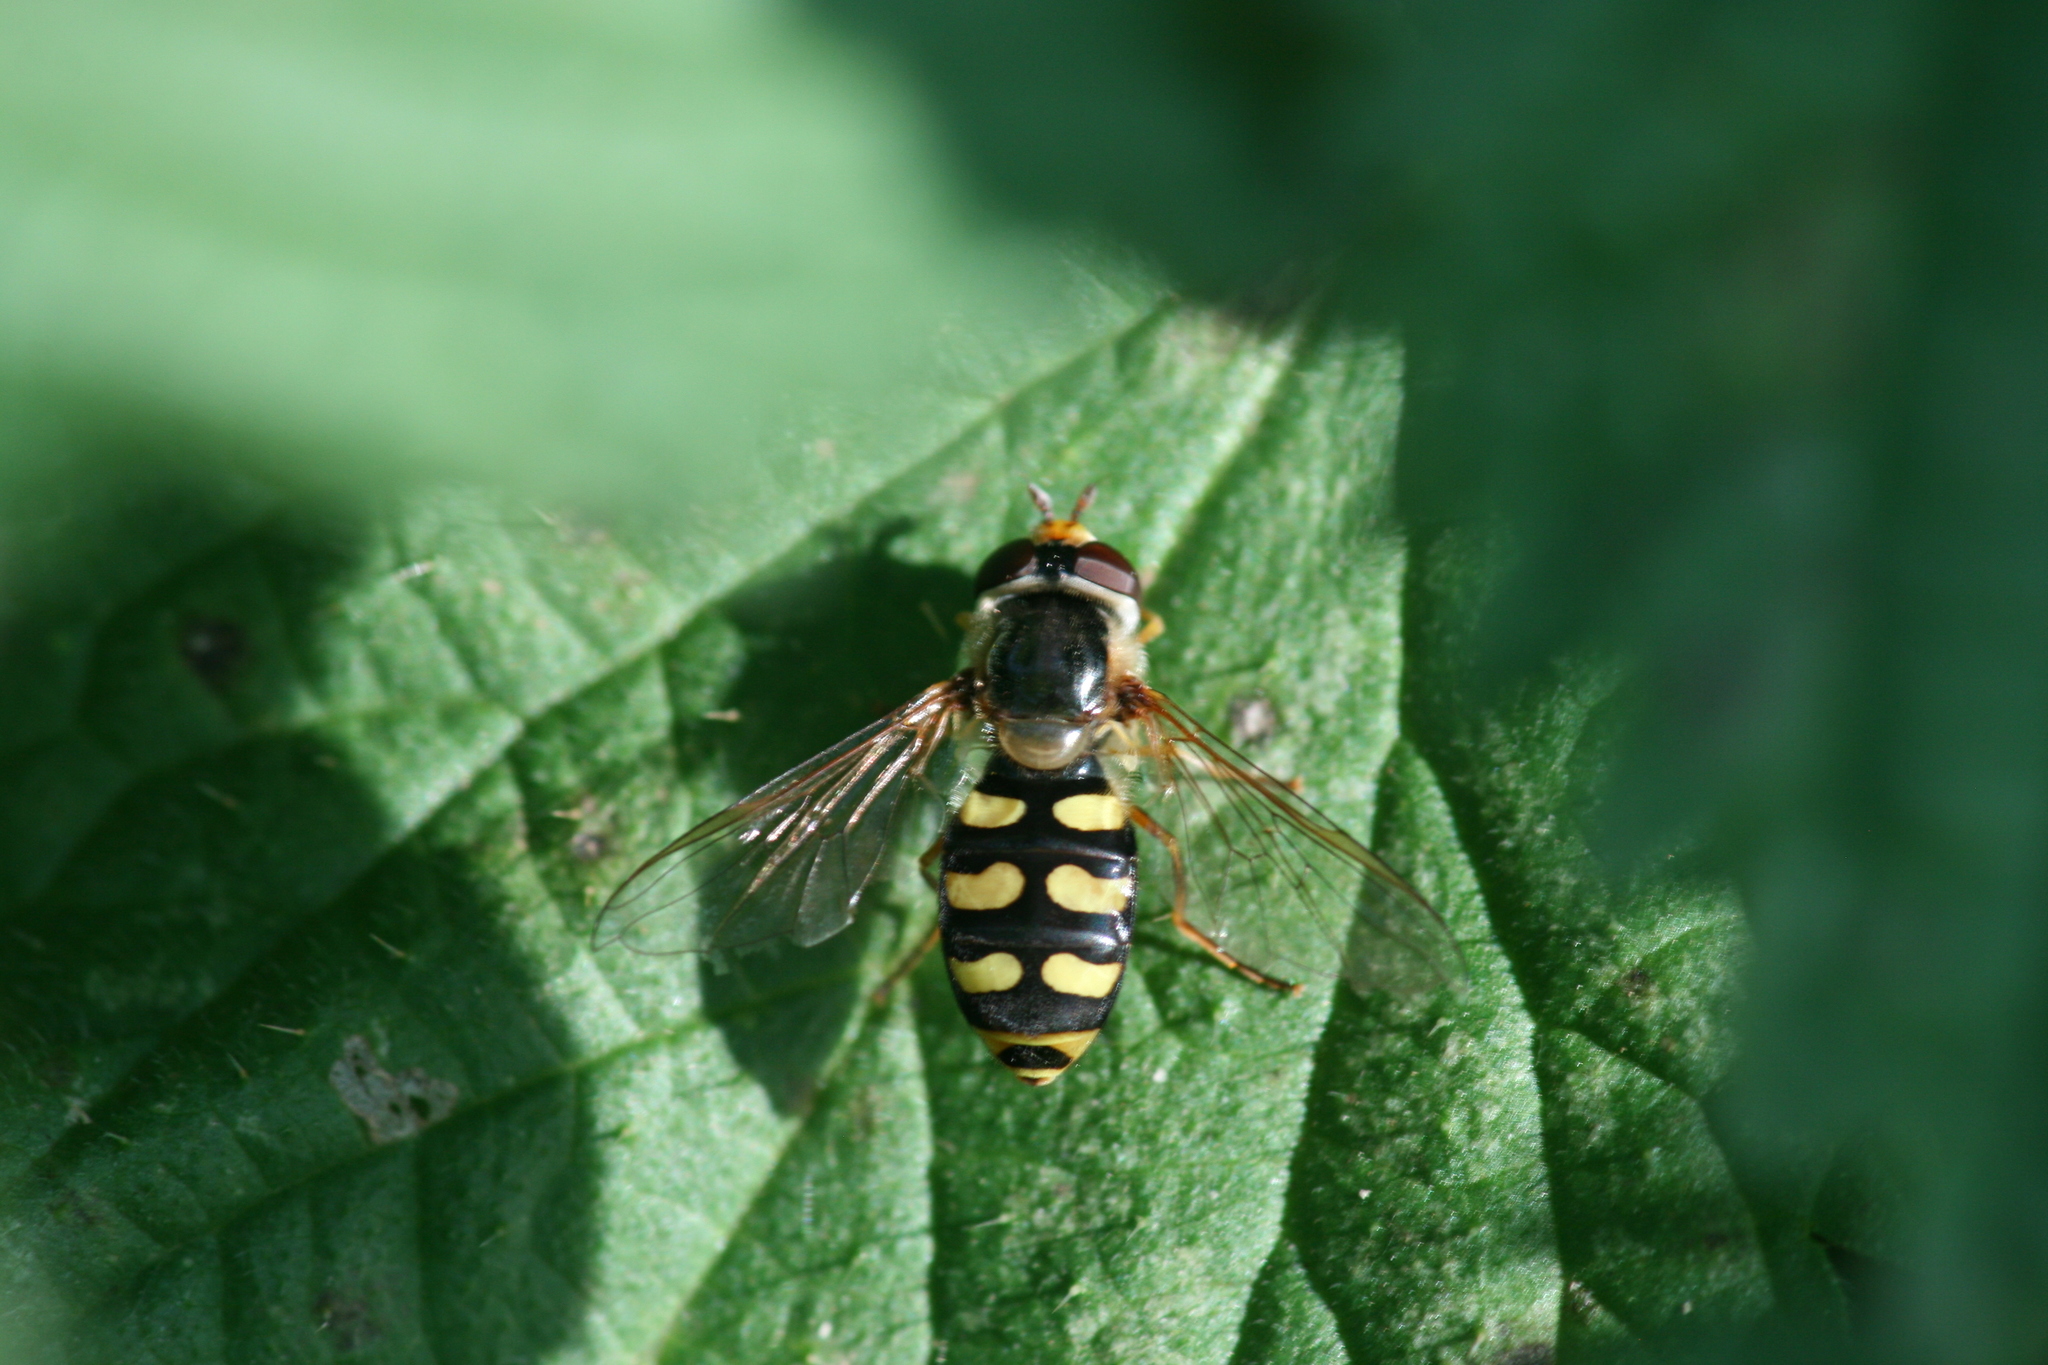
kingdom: Animalia
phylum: Arthropoda
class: Insecta
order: Diptera
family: Syrphidae
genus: Eupeodes
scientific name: Eupeodes luniger
